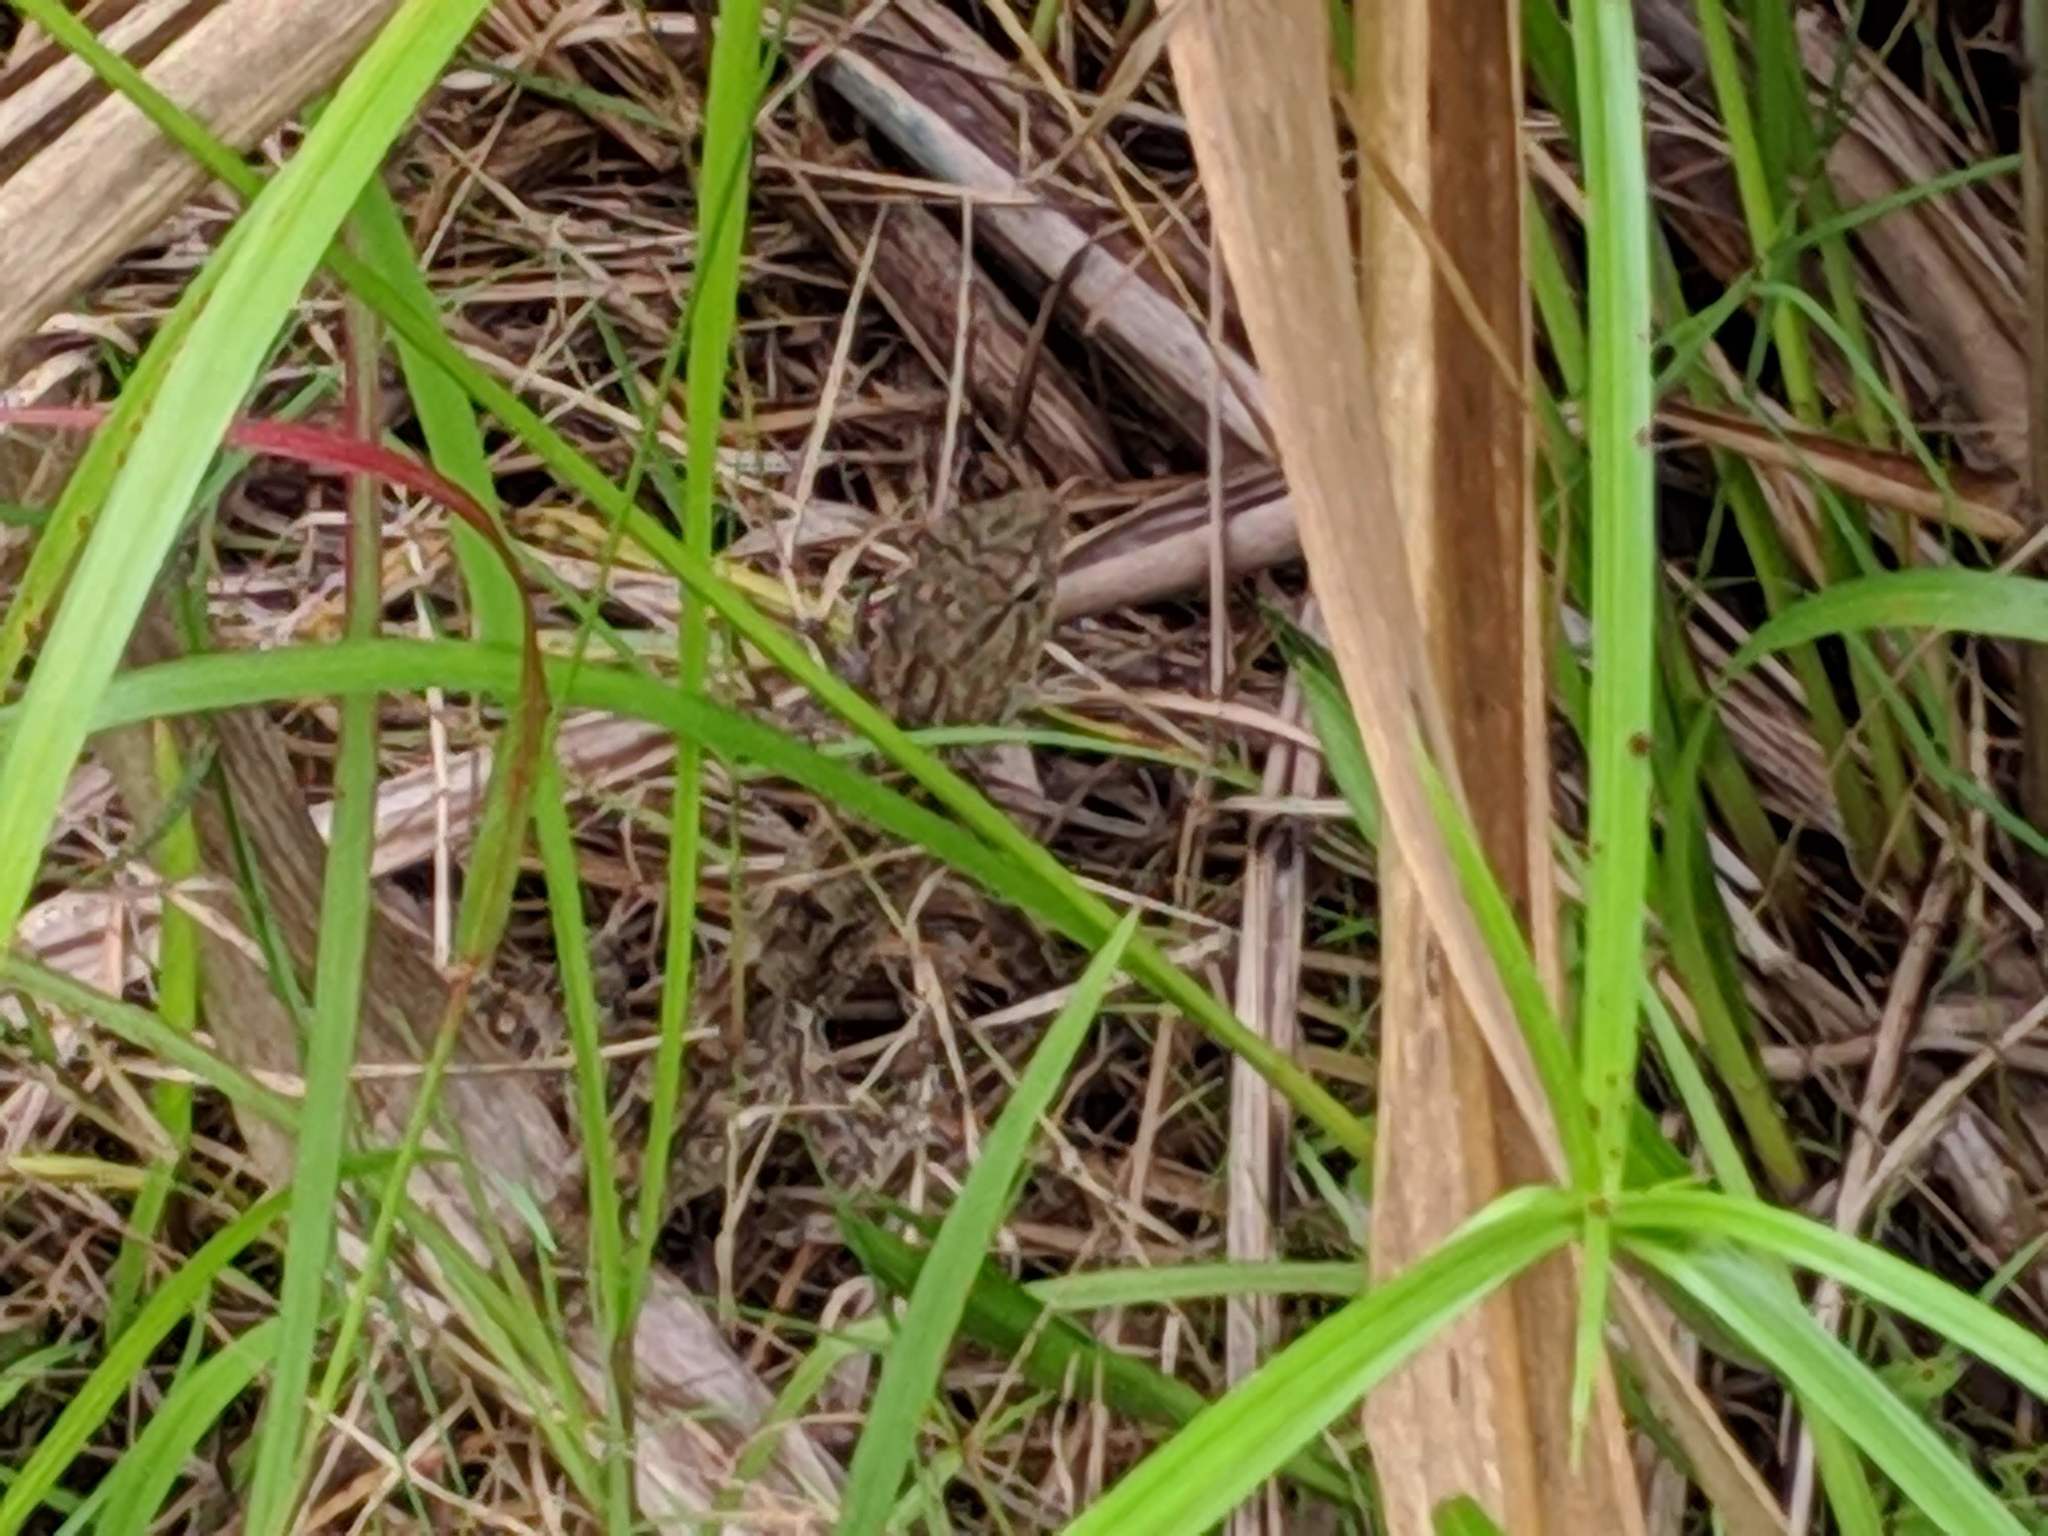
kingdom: Animalia
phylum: Chordata
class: Squamata
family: Agamidae
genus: Calotes
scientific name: Calotes versicolor
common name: Oriental garden lizard
